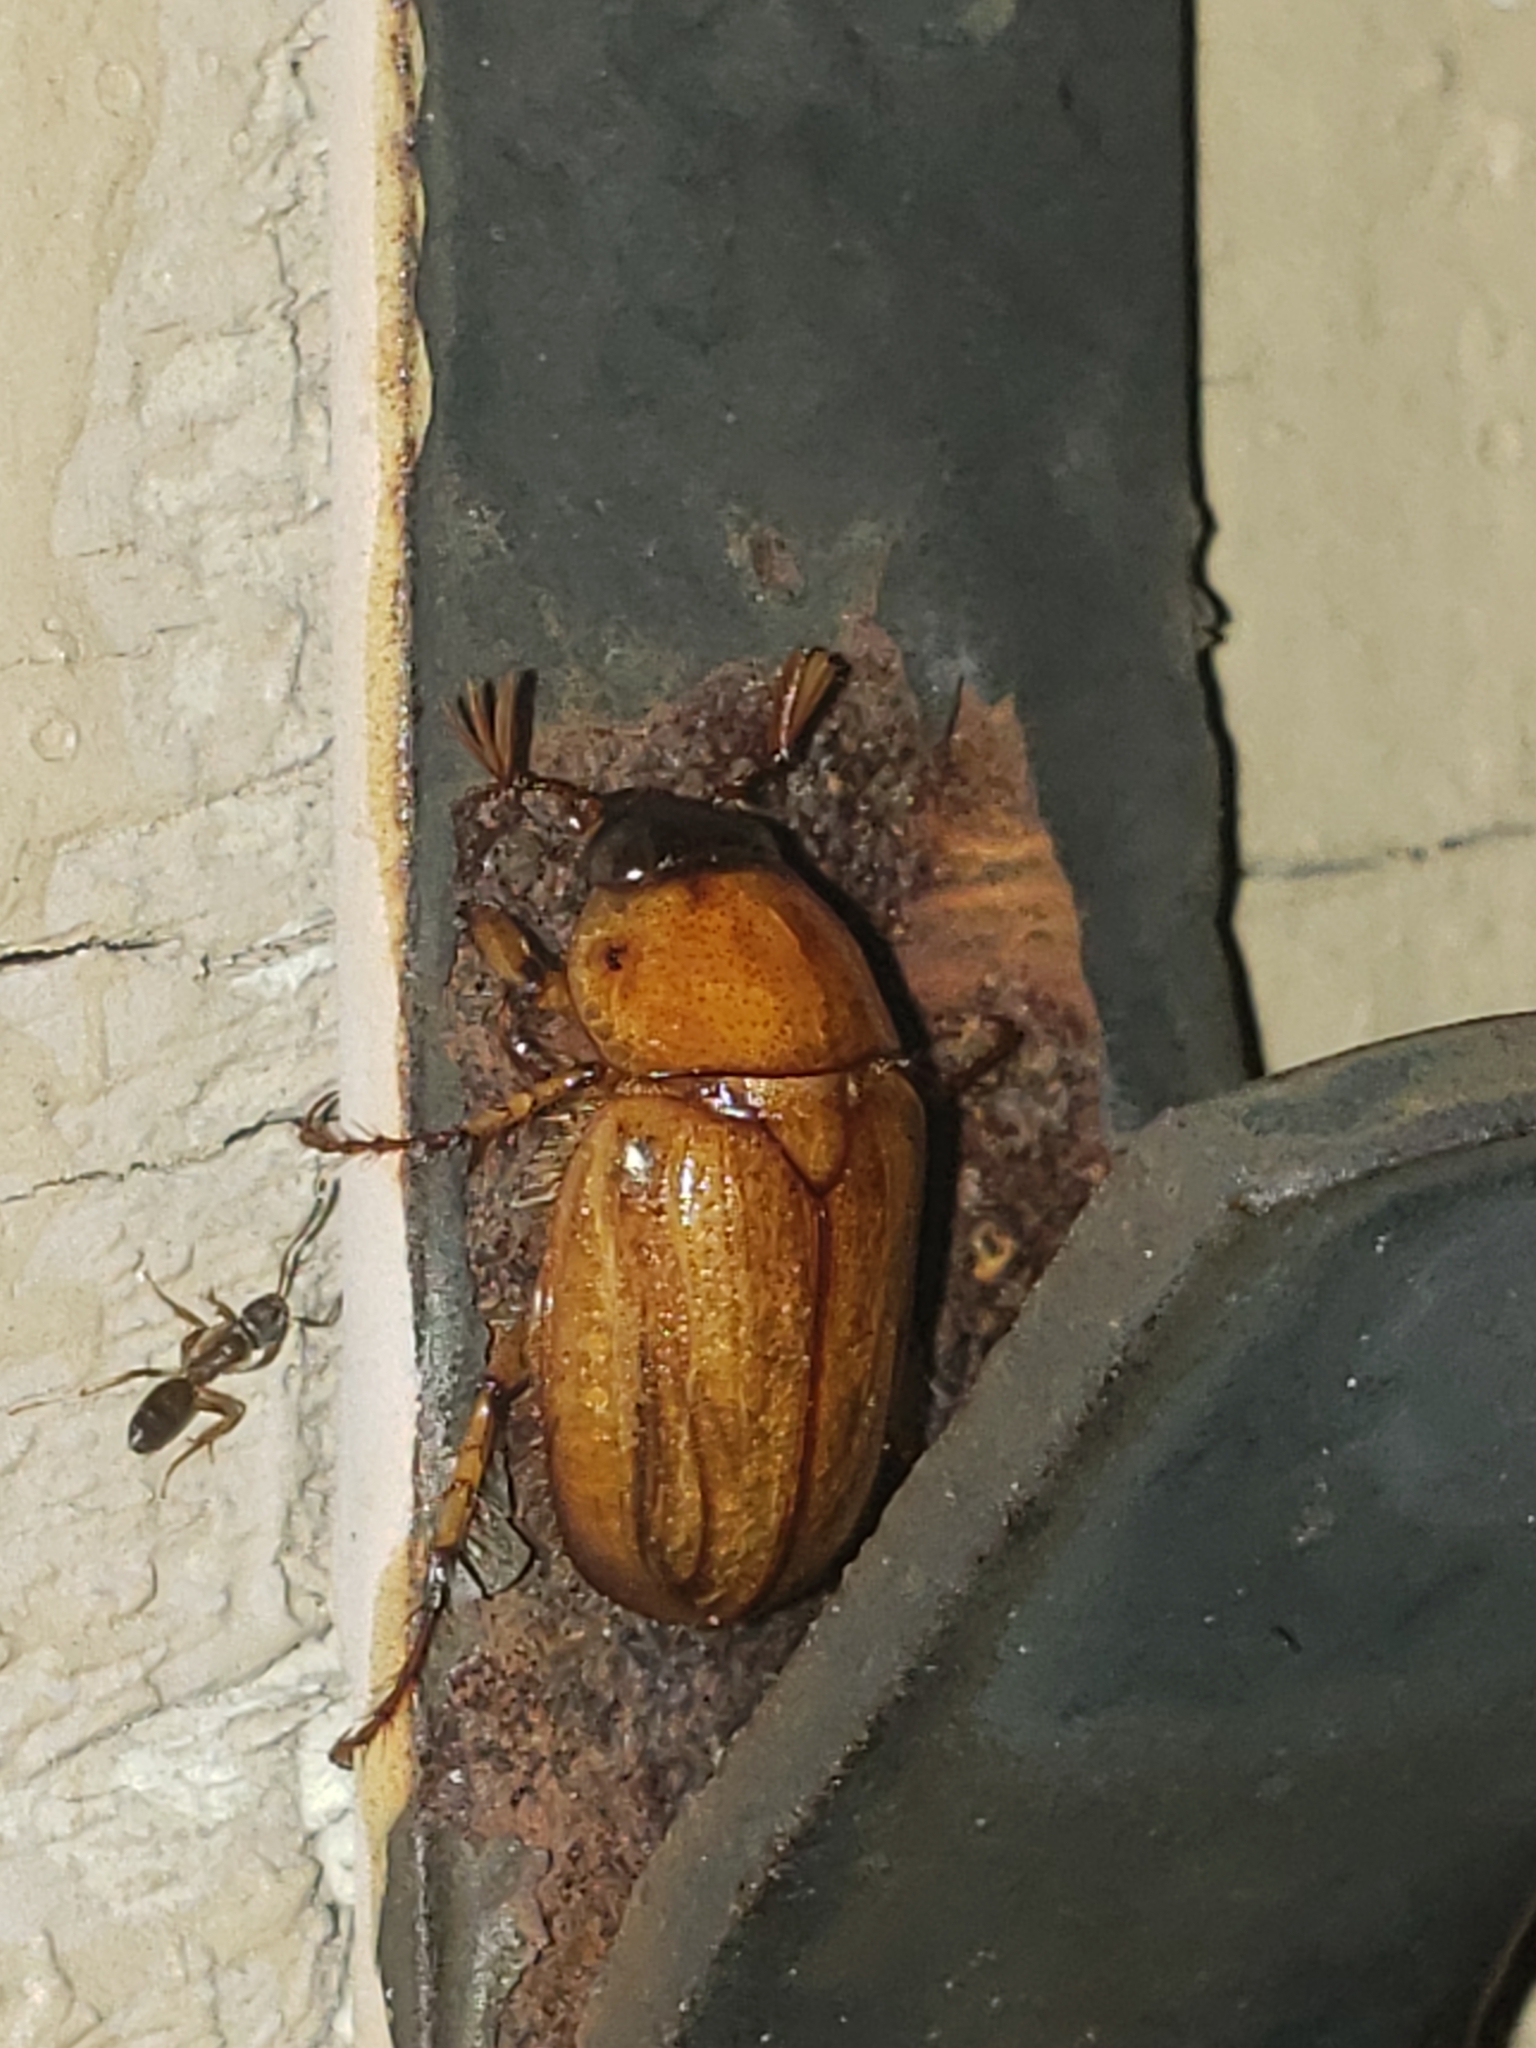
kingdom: Animalia
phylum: Arthropoda
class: Insecta
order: Coleoptera
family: Scarabaeidae
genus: Cyclocephala
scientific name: Cyclocephala lurida
